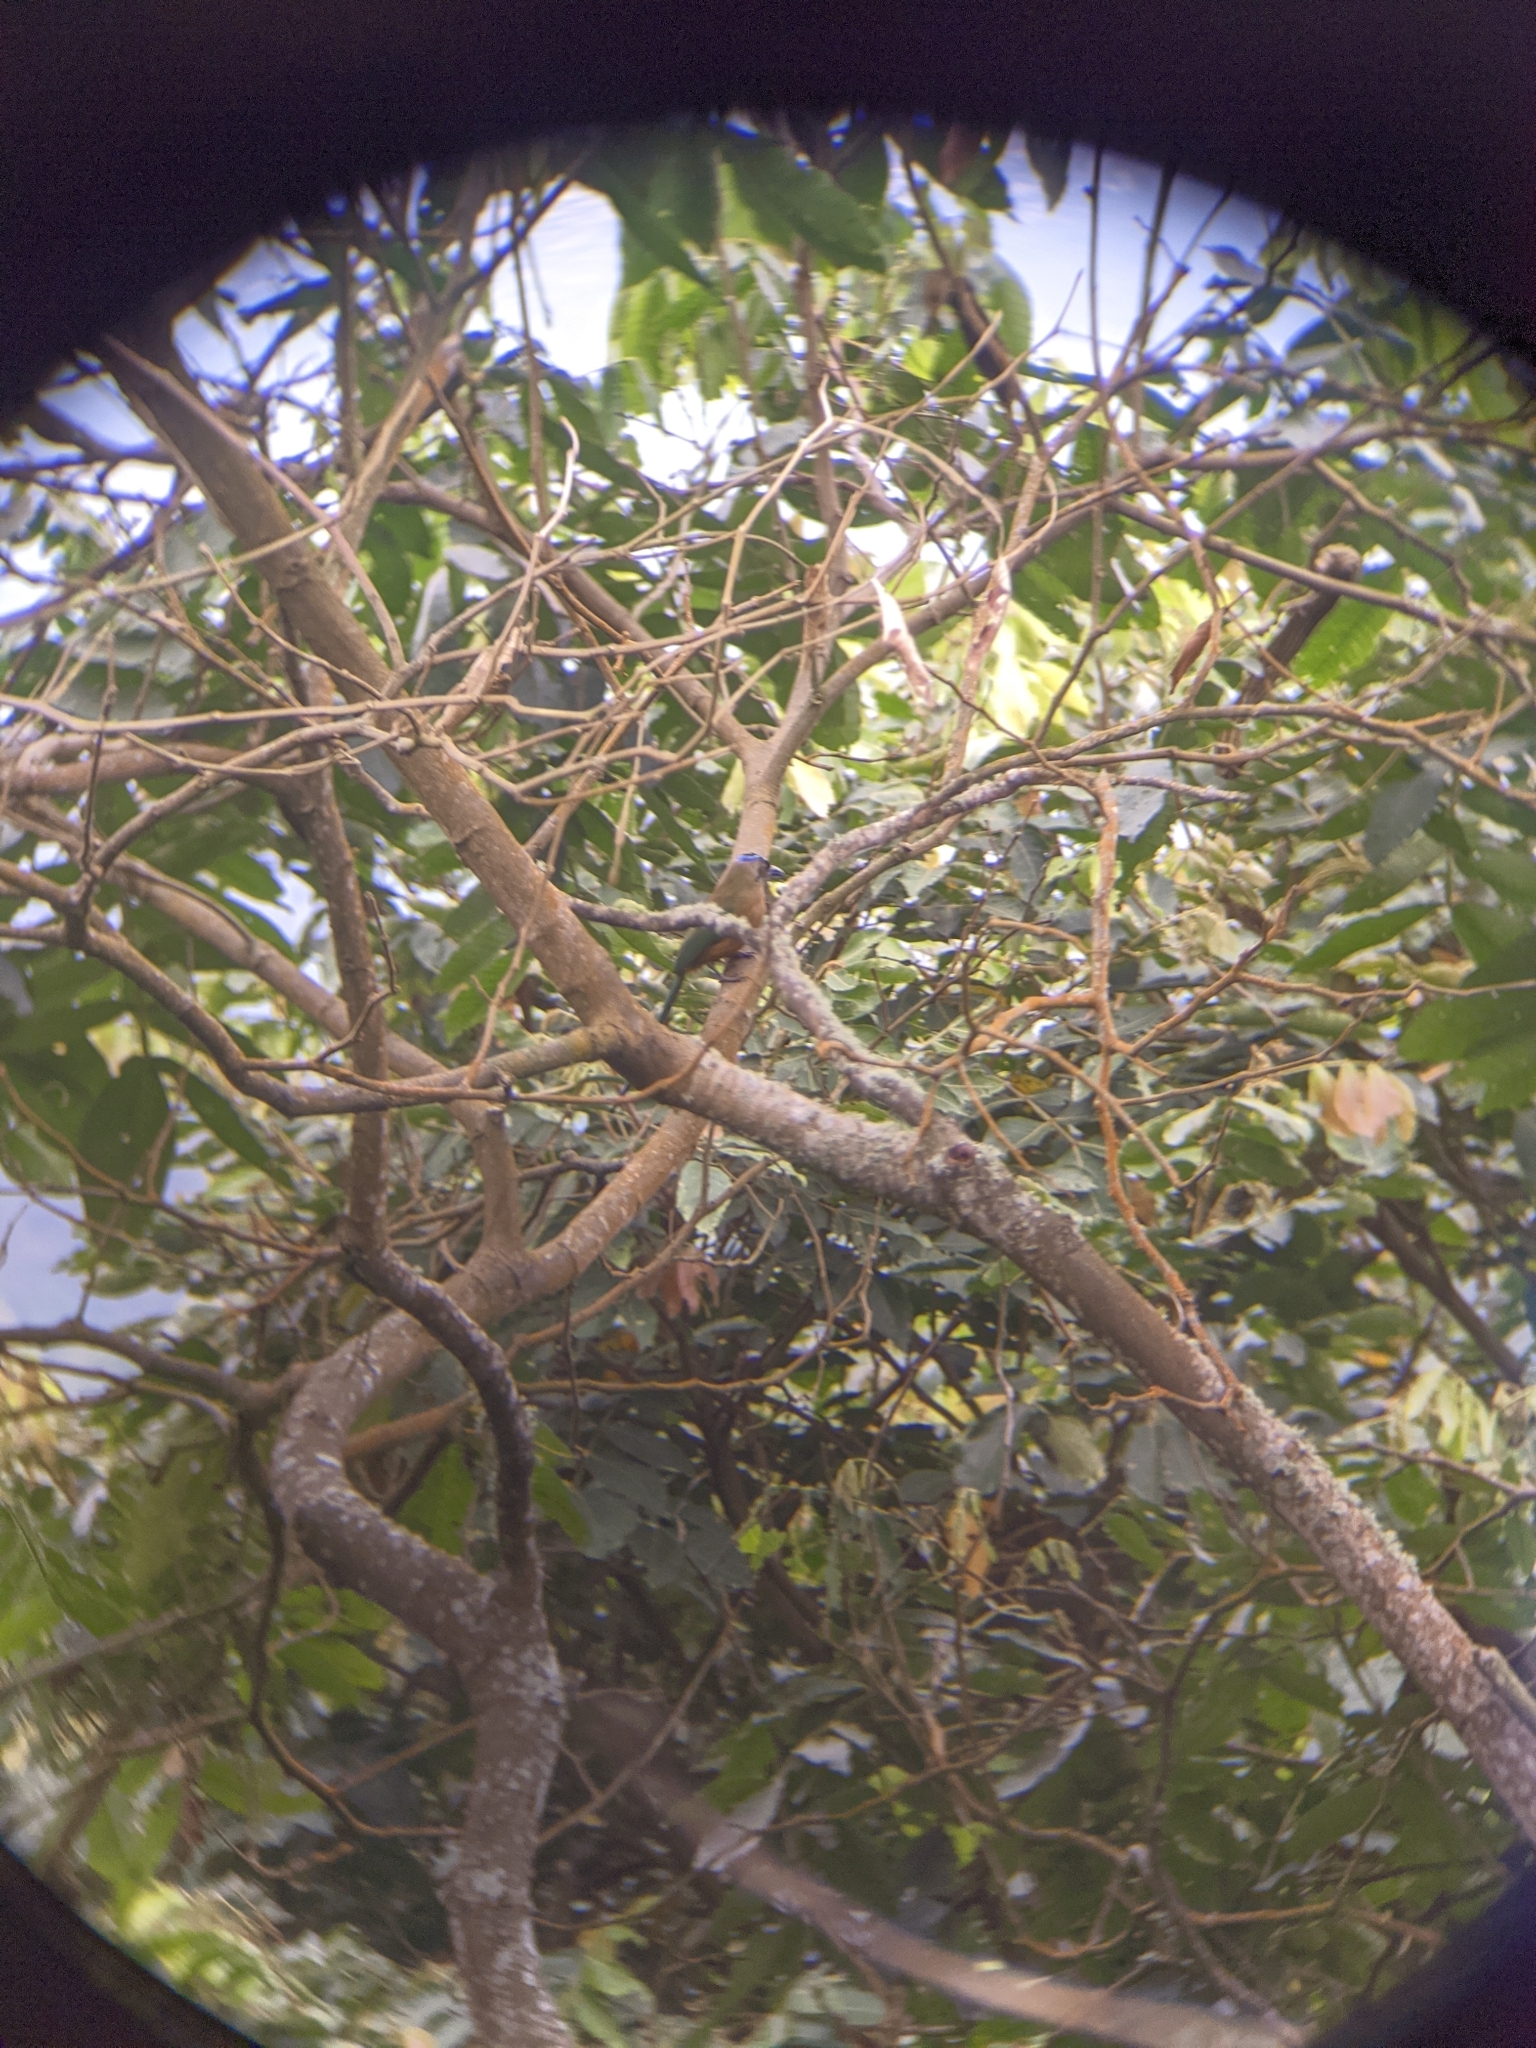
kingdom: Animalia
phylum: Chordata
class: Aves
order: Coraciiformes
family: Momotidae
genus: Momotus
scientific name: Momotus subrufescens
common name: Whooping motmot
